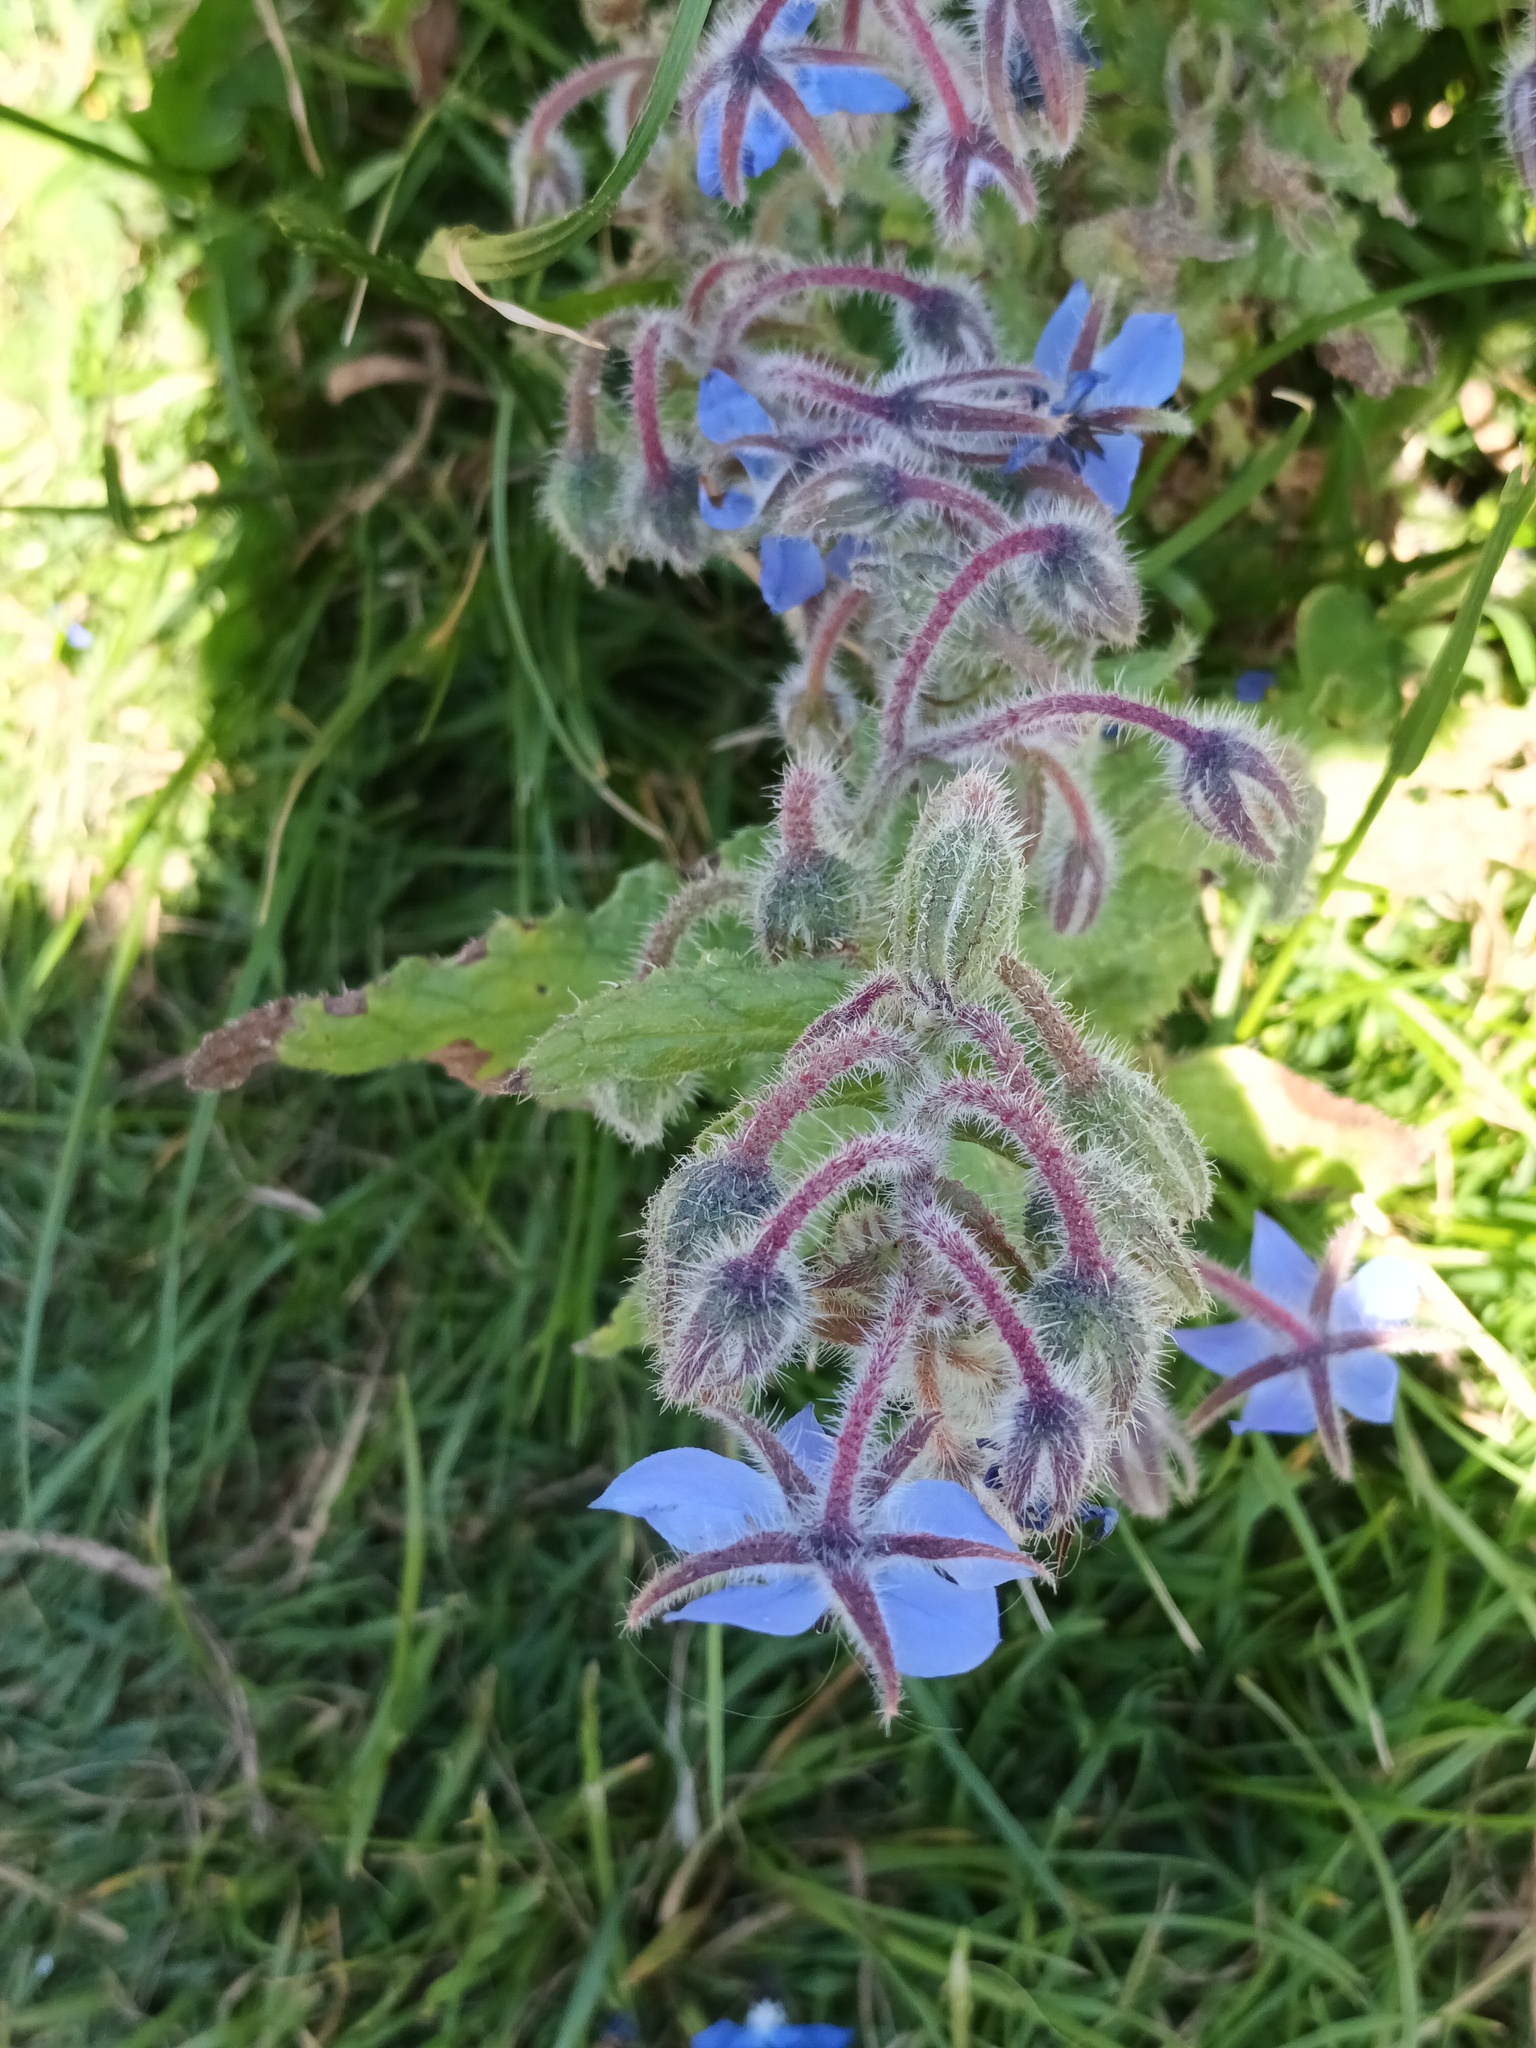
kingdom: Plantae
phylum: Tracheophyta
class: Magnoliopsida
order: Boraginales
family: Boraginaceae
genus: Borago
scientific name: Borago officinalis
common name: Borage
